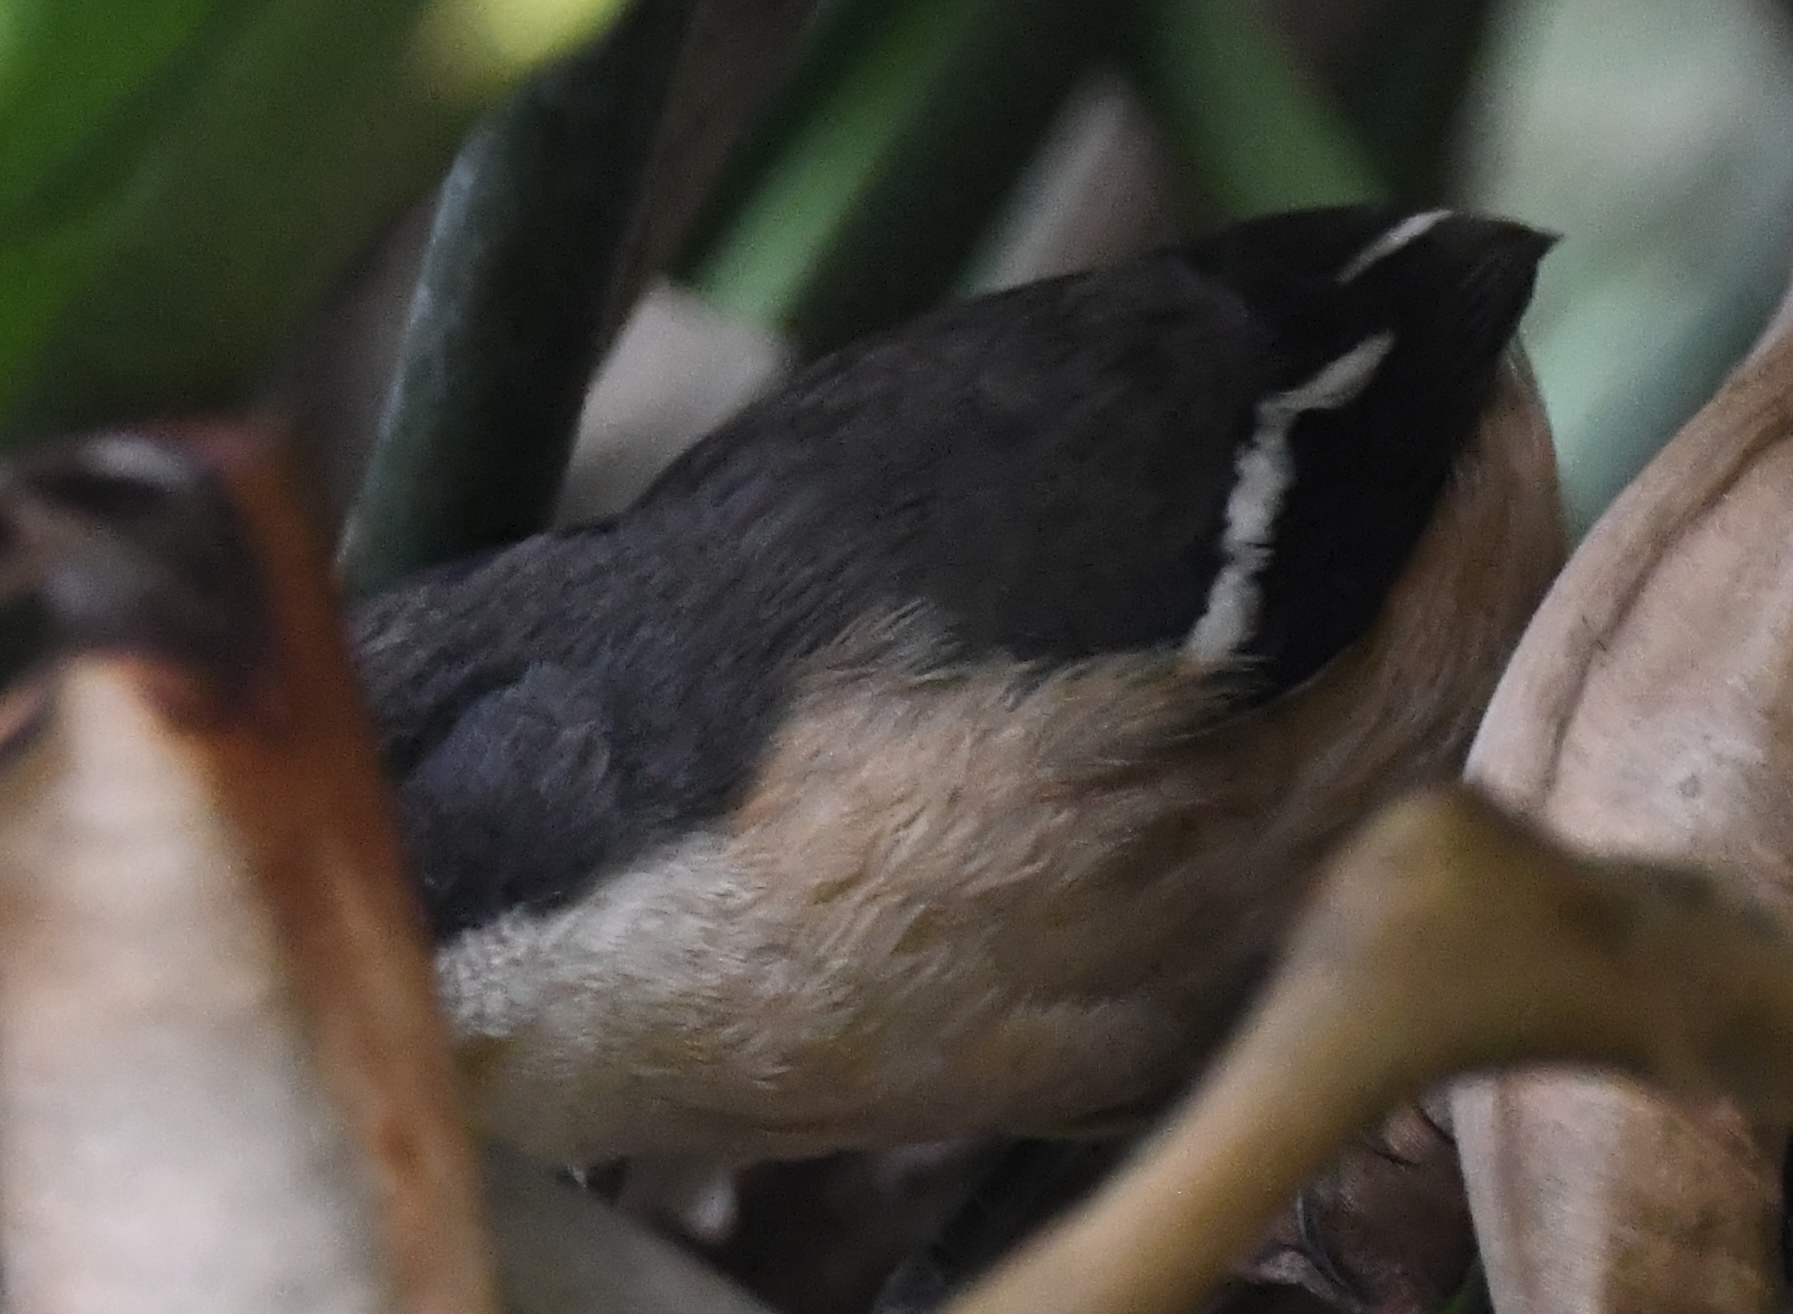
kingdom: Animalia
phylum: Chordata
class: Aves
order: Passeriformes
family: Malaconotidae
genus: Laniarius
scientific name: Laniarius ferrugineus
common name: Southern boubou
